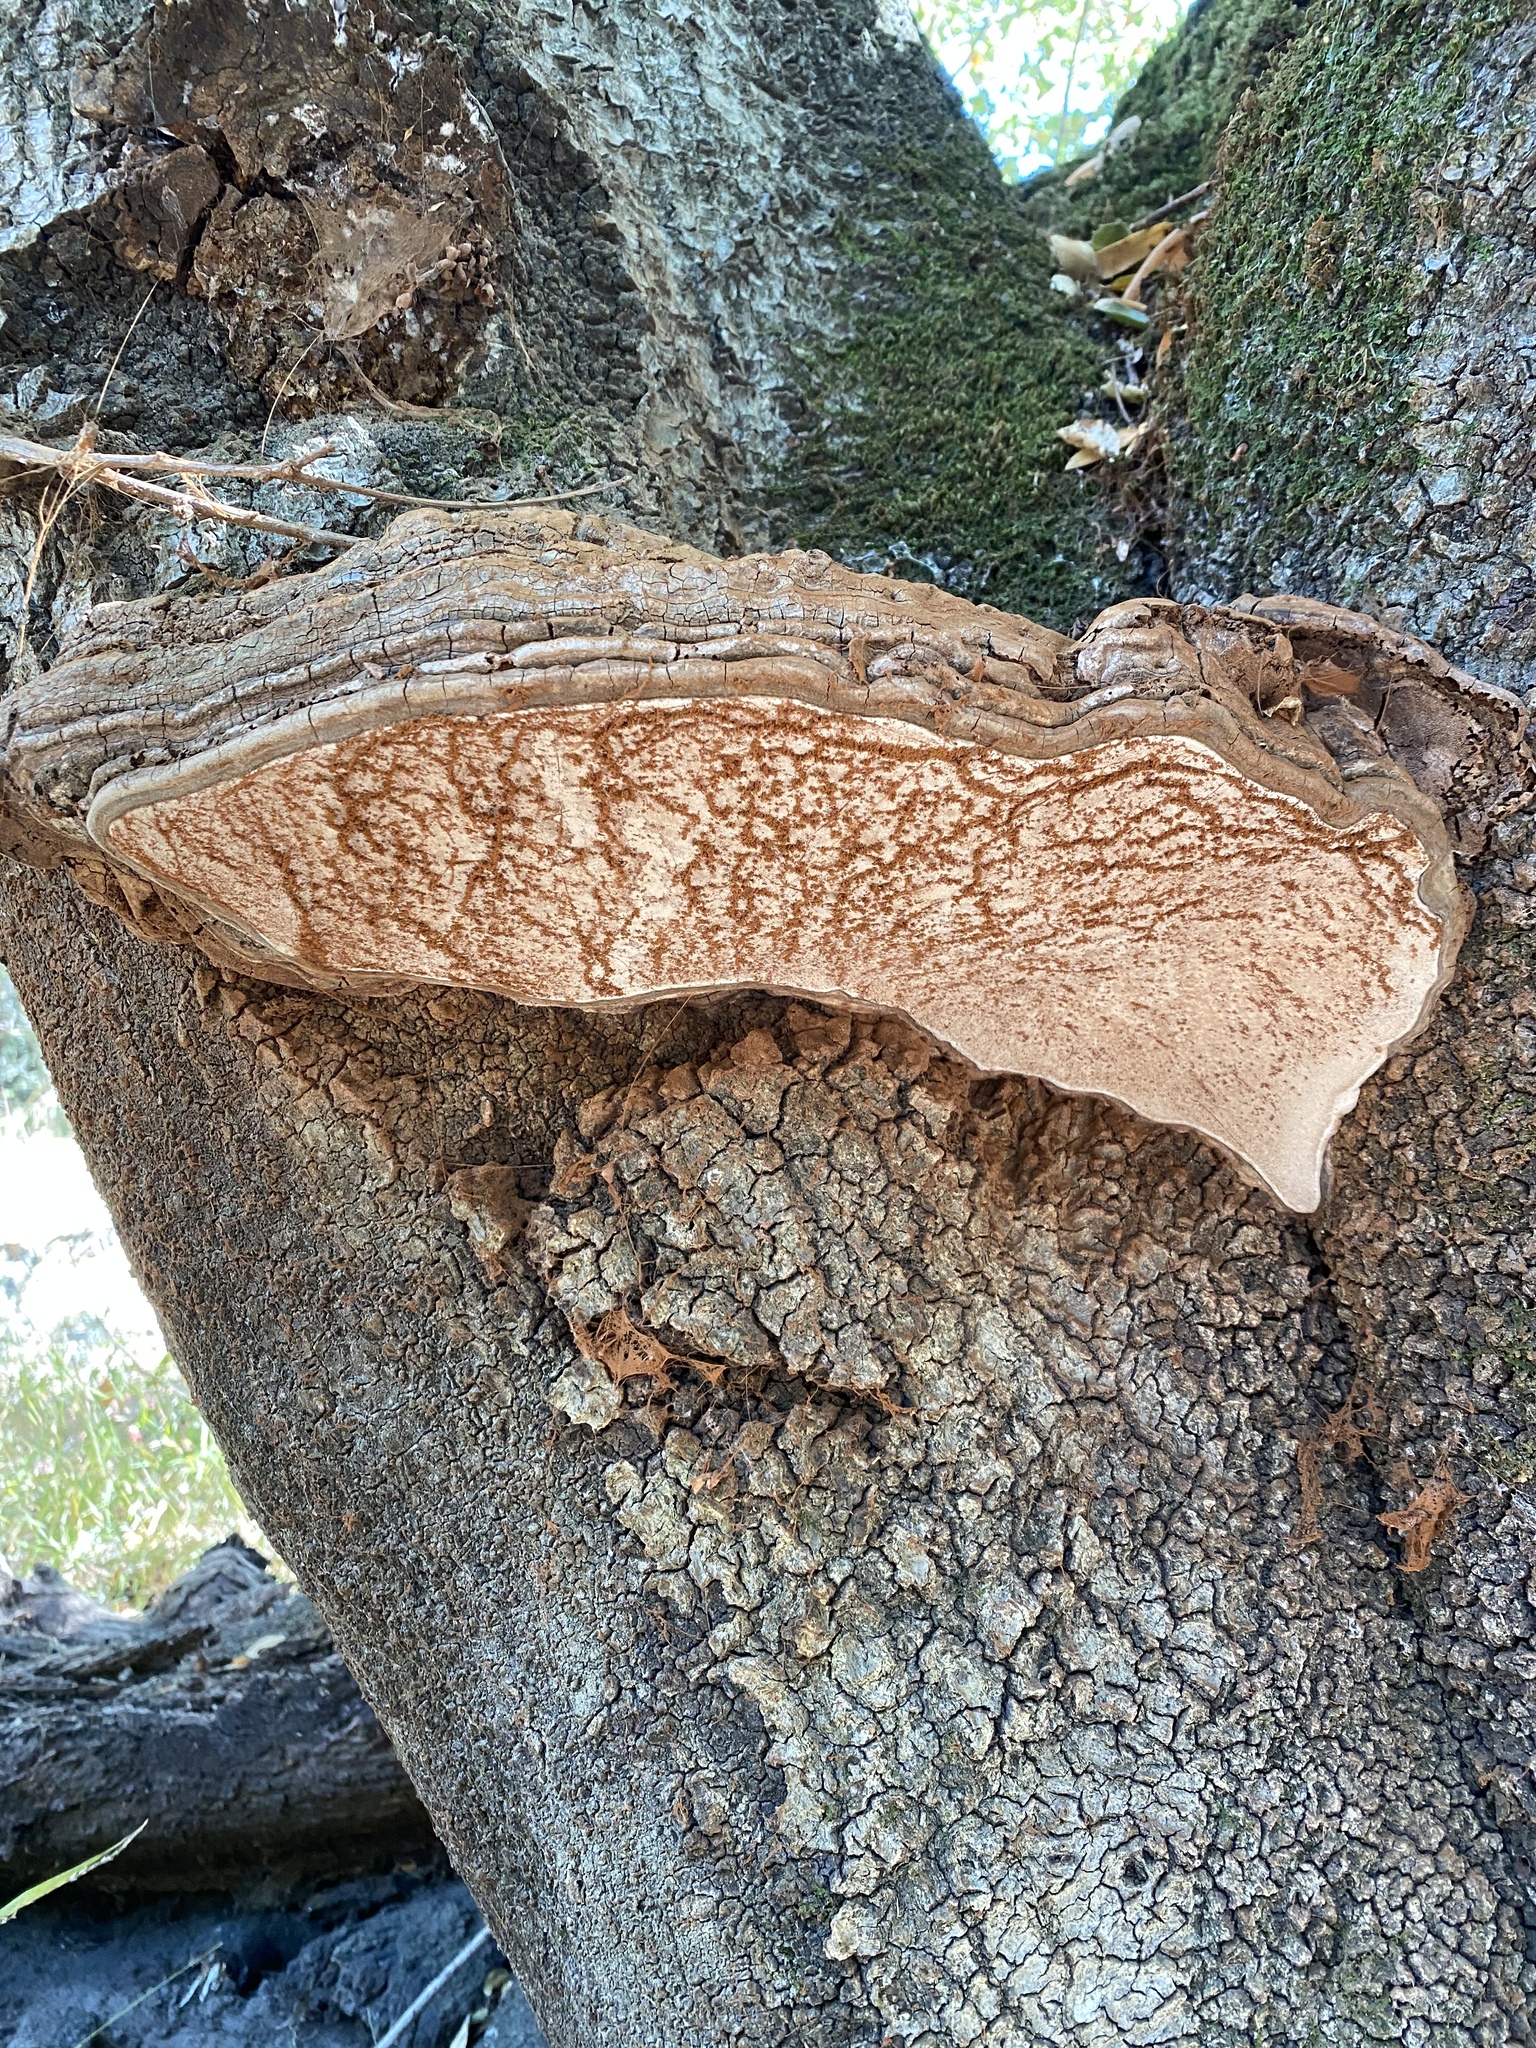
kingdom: Fungi
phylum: Basidiomycota
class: Agaricomycetes
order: Polyporales
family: Polyporaceae
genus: Ganoderma
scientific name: Ganoderma brownii
